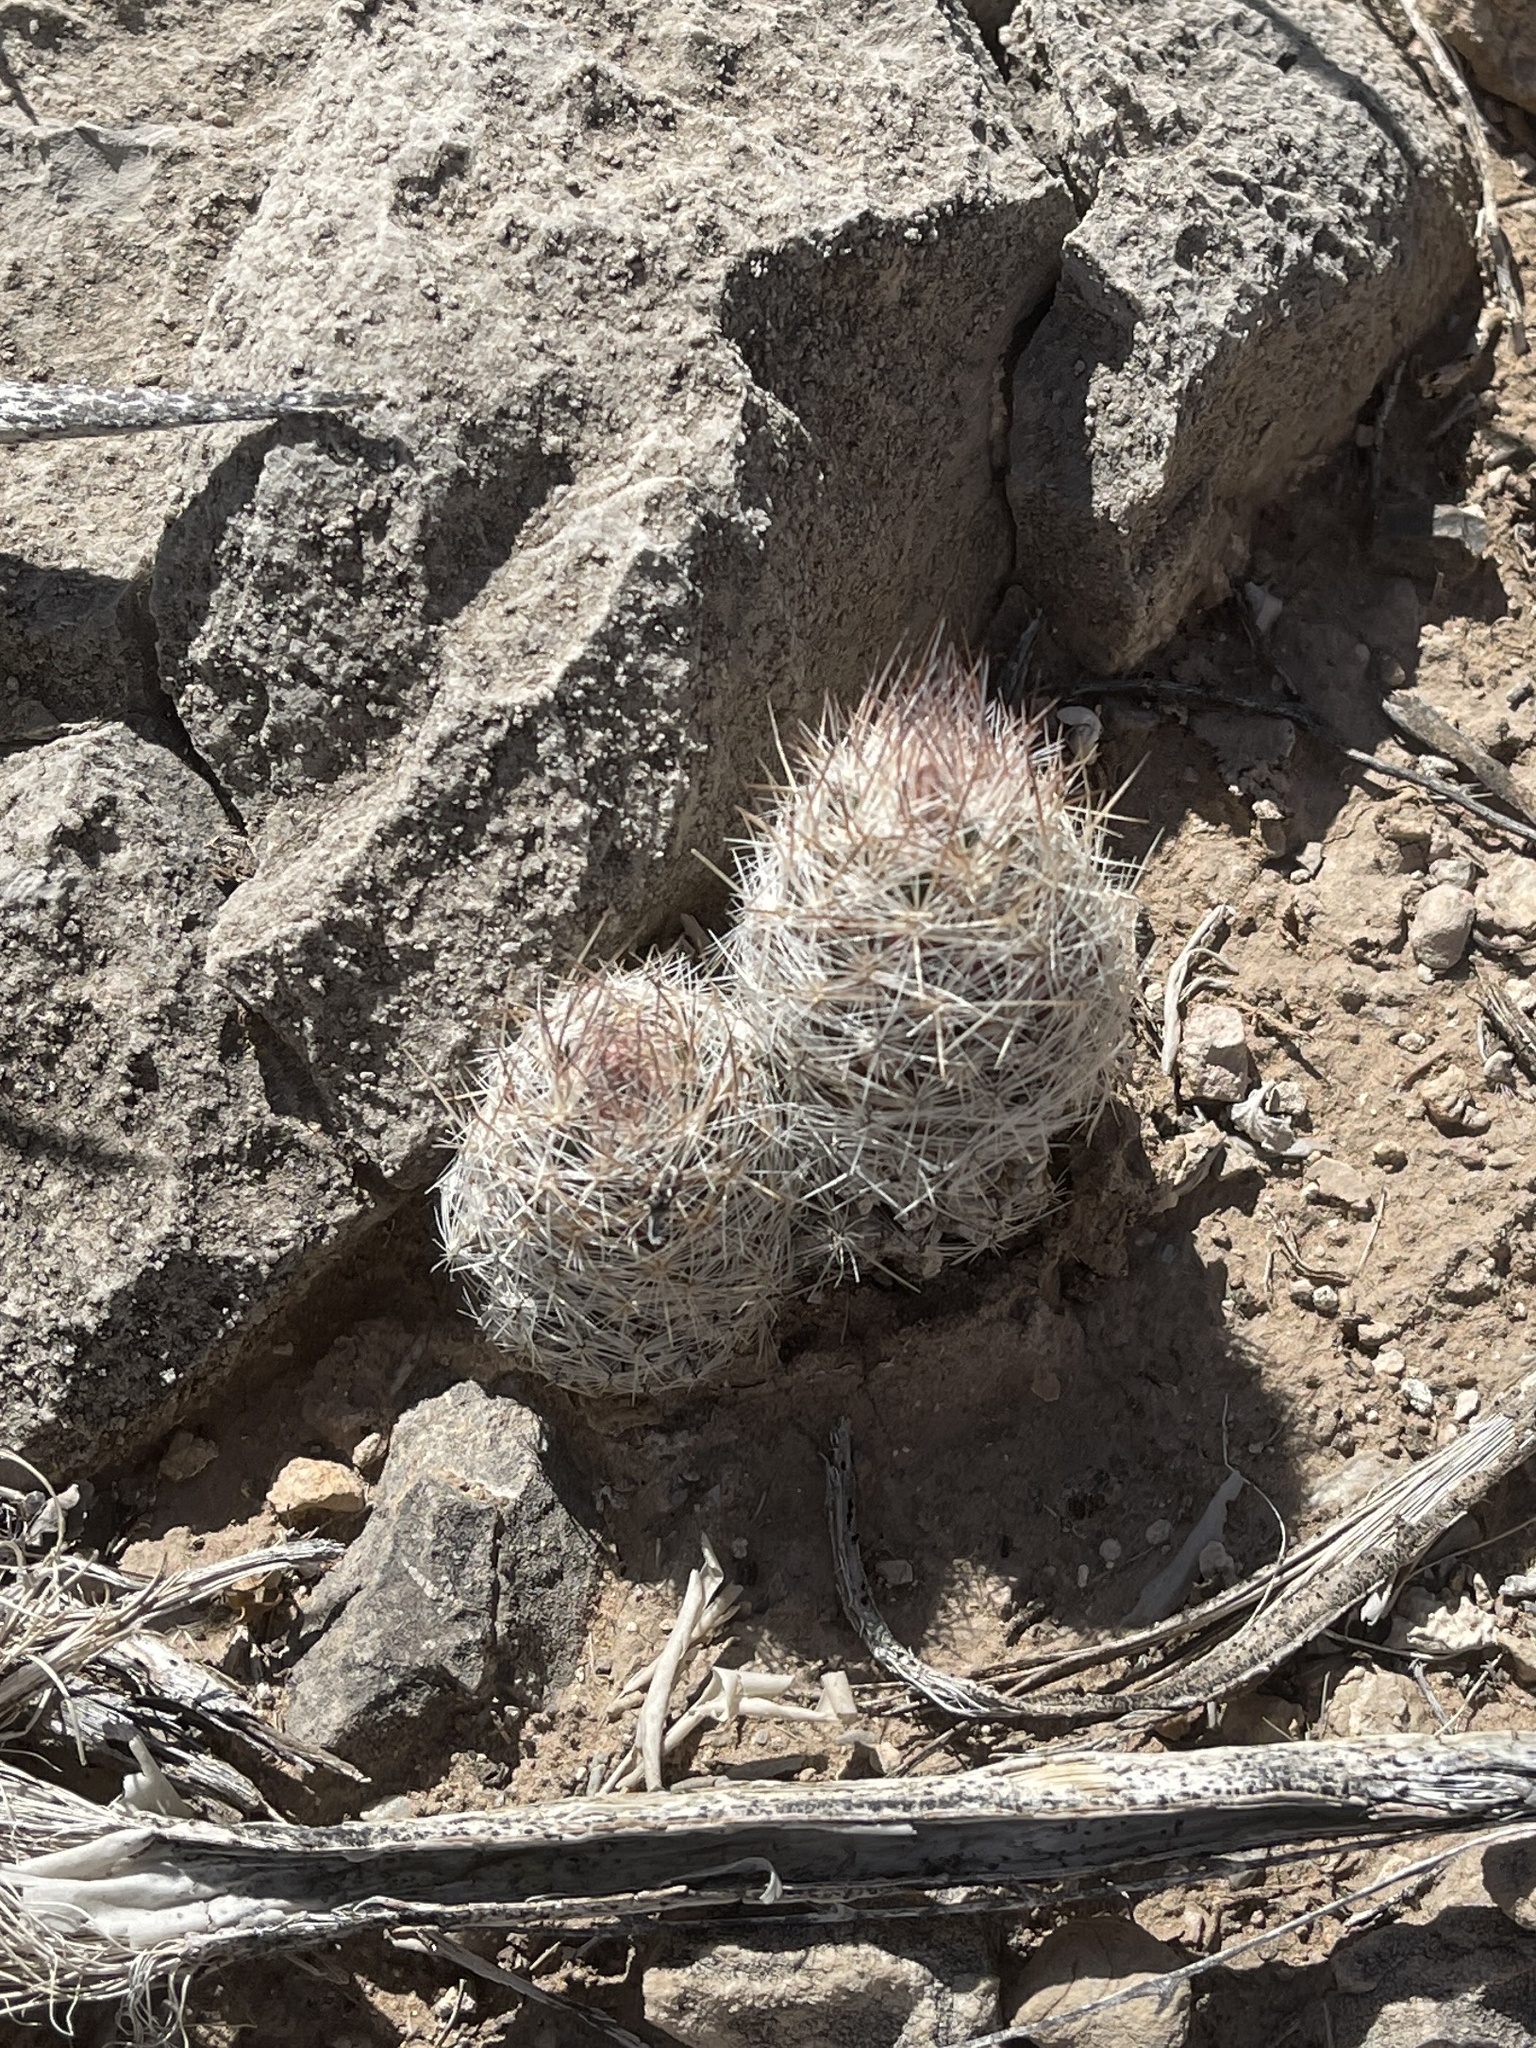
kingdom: Plantae
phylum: Tracheophyta
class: Magnoliopsida
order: Caryophyllales
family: Cactaceae
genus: Pelecyphora
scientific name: Pelecyphora tuberculosa
